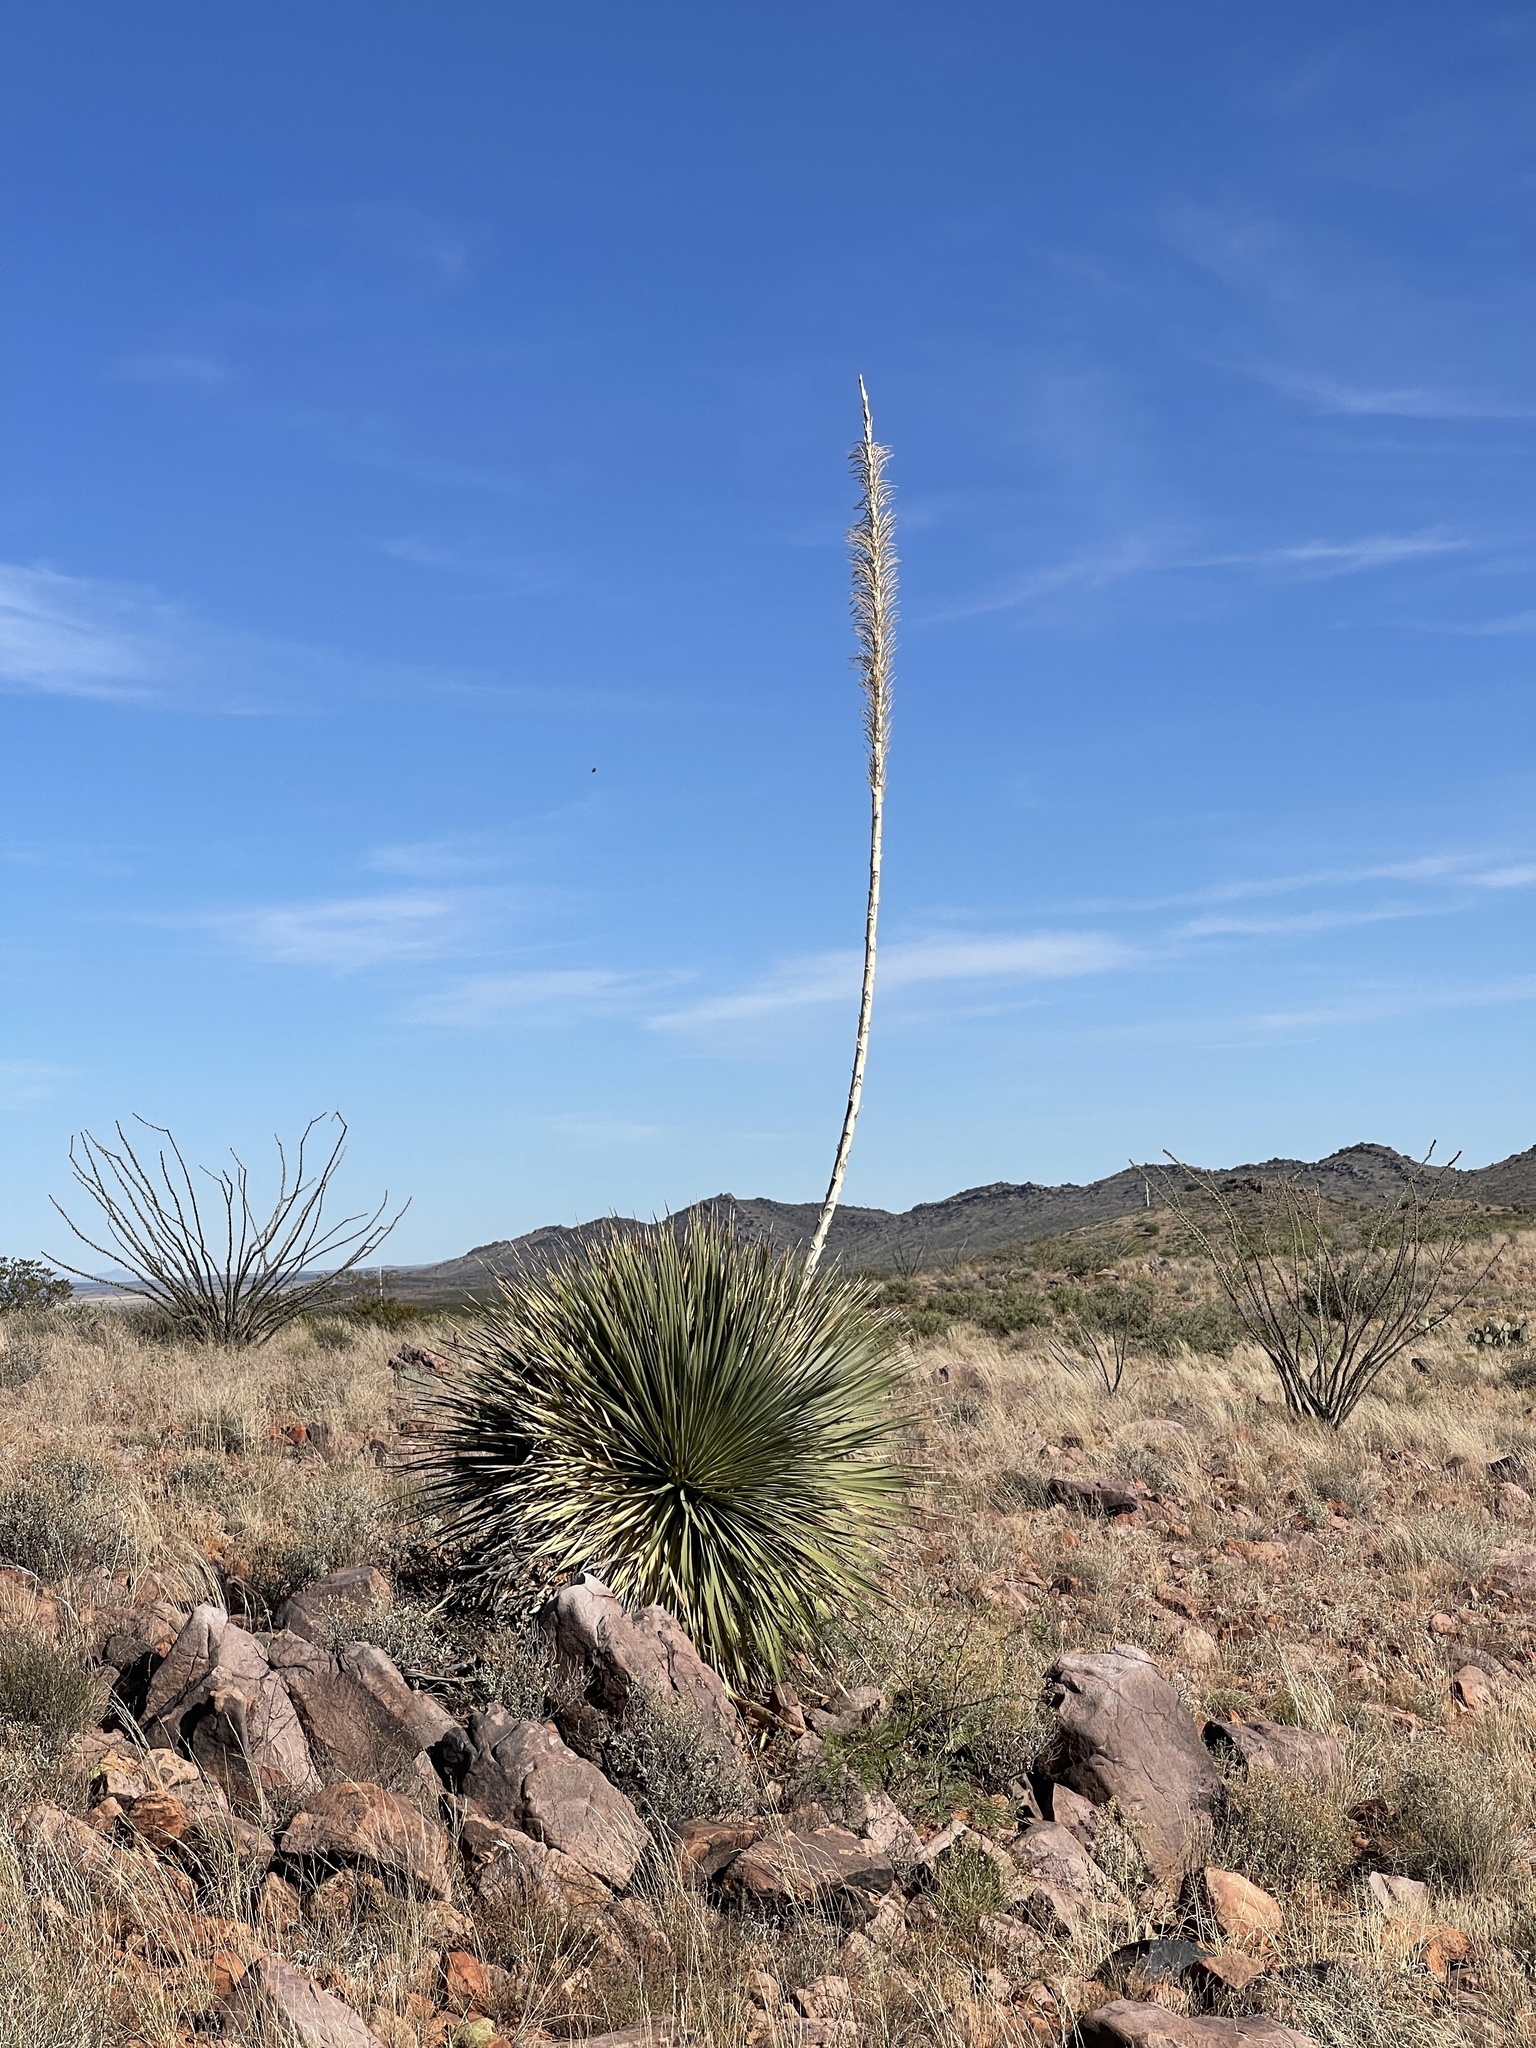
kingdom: Plantae
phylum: Tracheophyta
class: Liliopsida
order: Asparagales
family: Asparagaceae
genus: Dasylirion
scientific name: Dasylirion wheeleri
